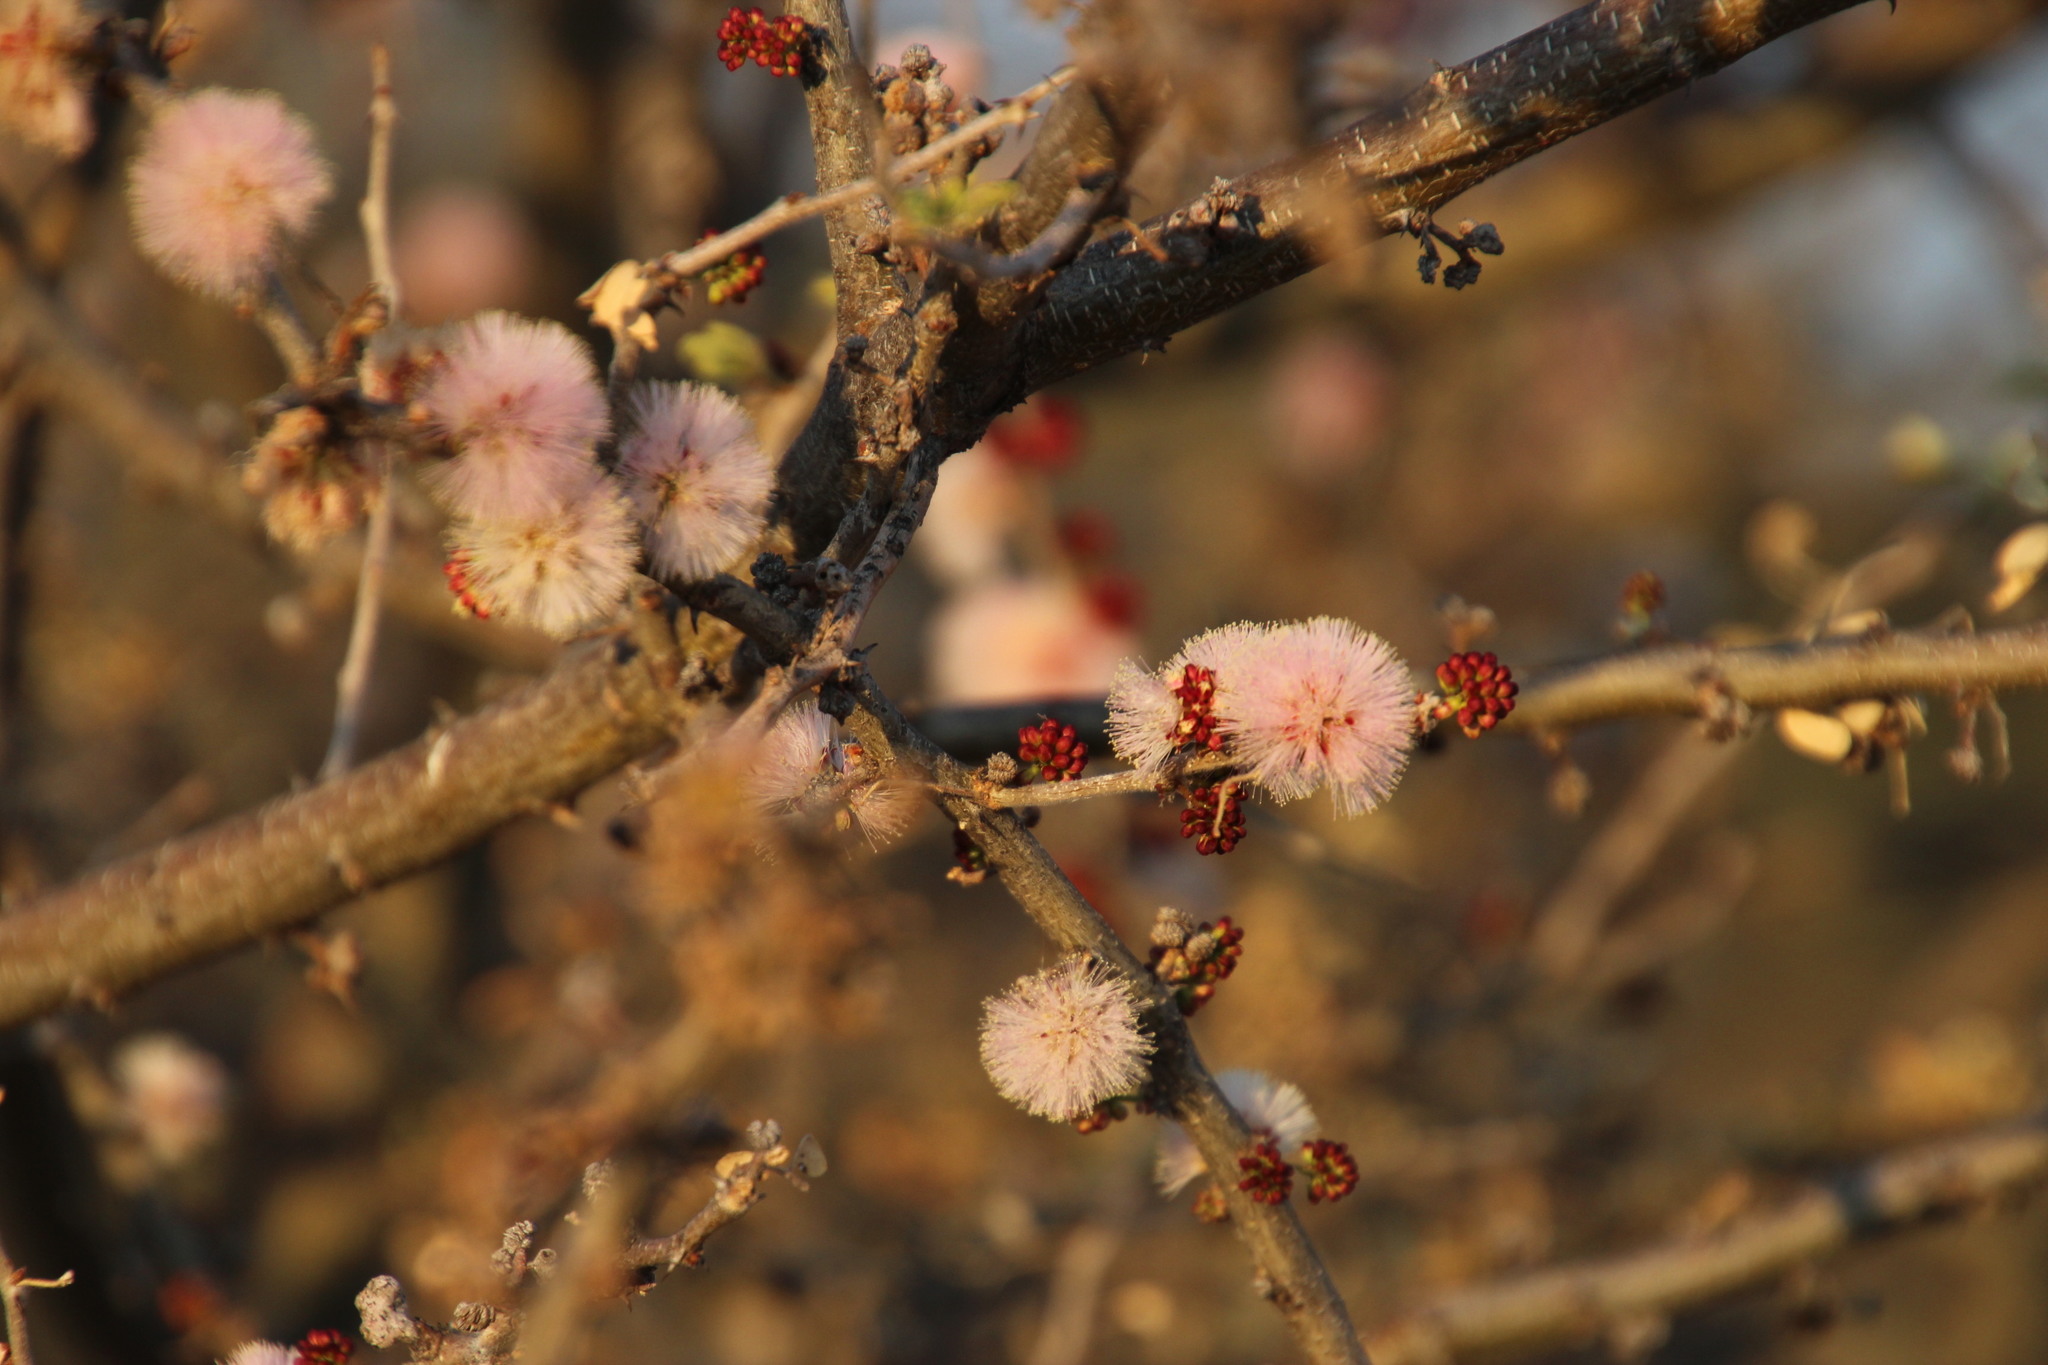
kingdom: Plantae
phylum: Tracheophyta
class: Magnoliopsida
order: Fabales
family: Fabaceae
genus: Senegalia
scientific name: Senegalia mellifera
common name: Hookthorn
